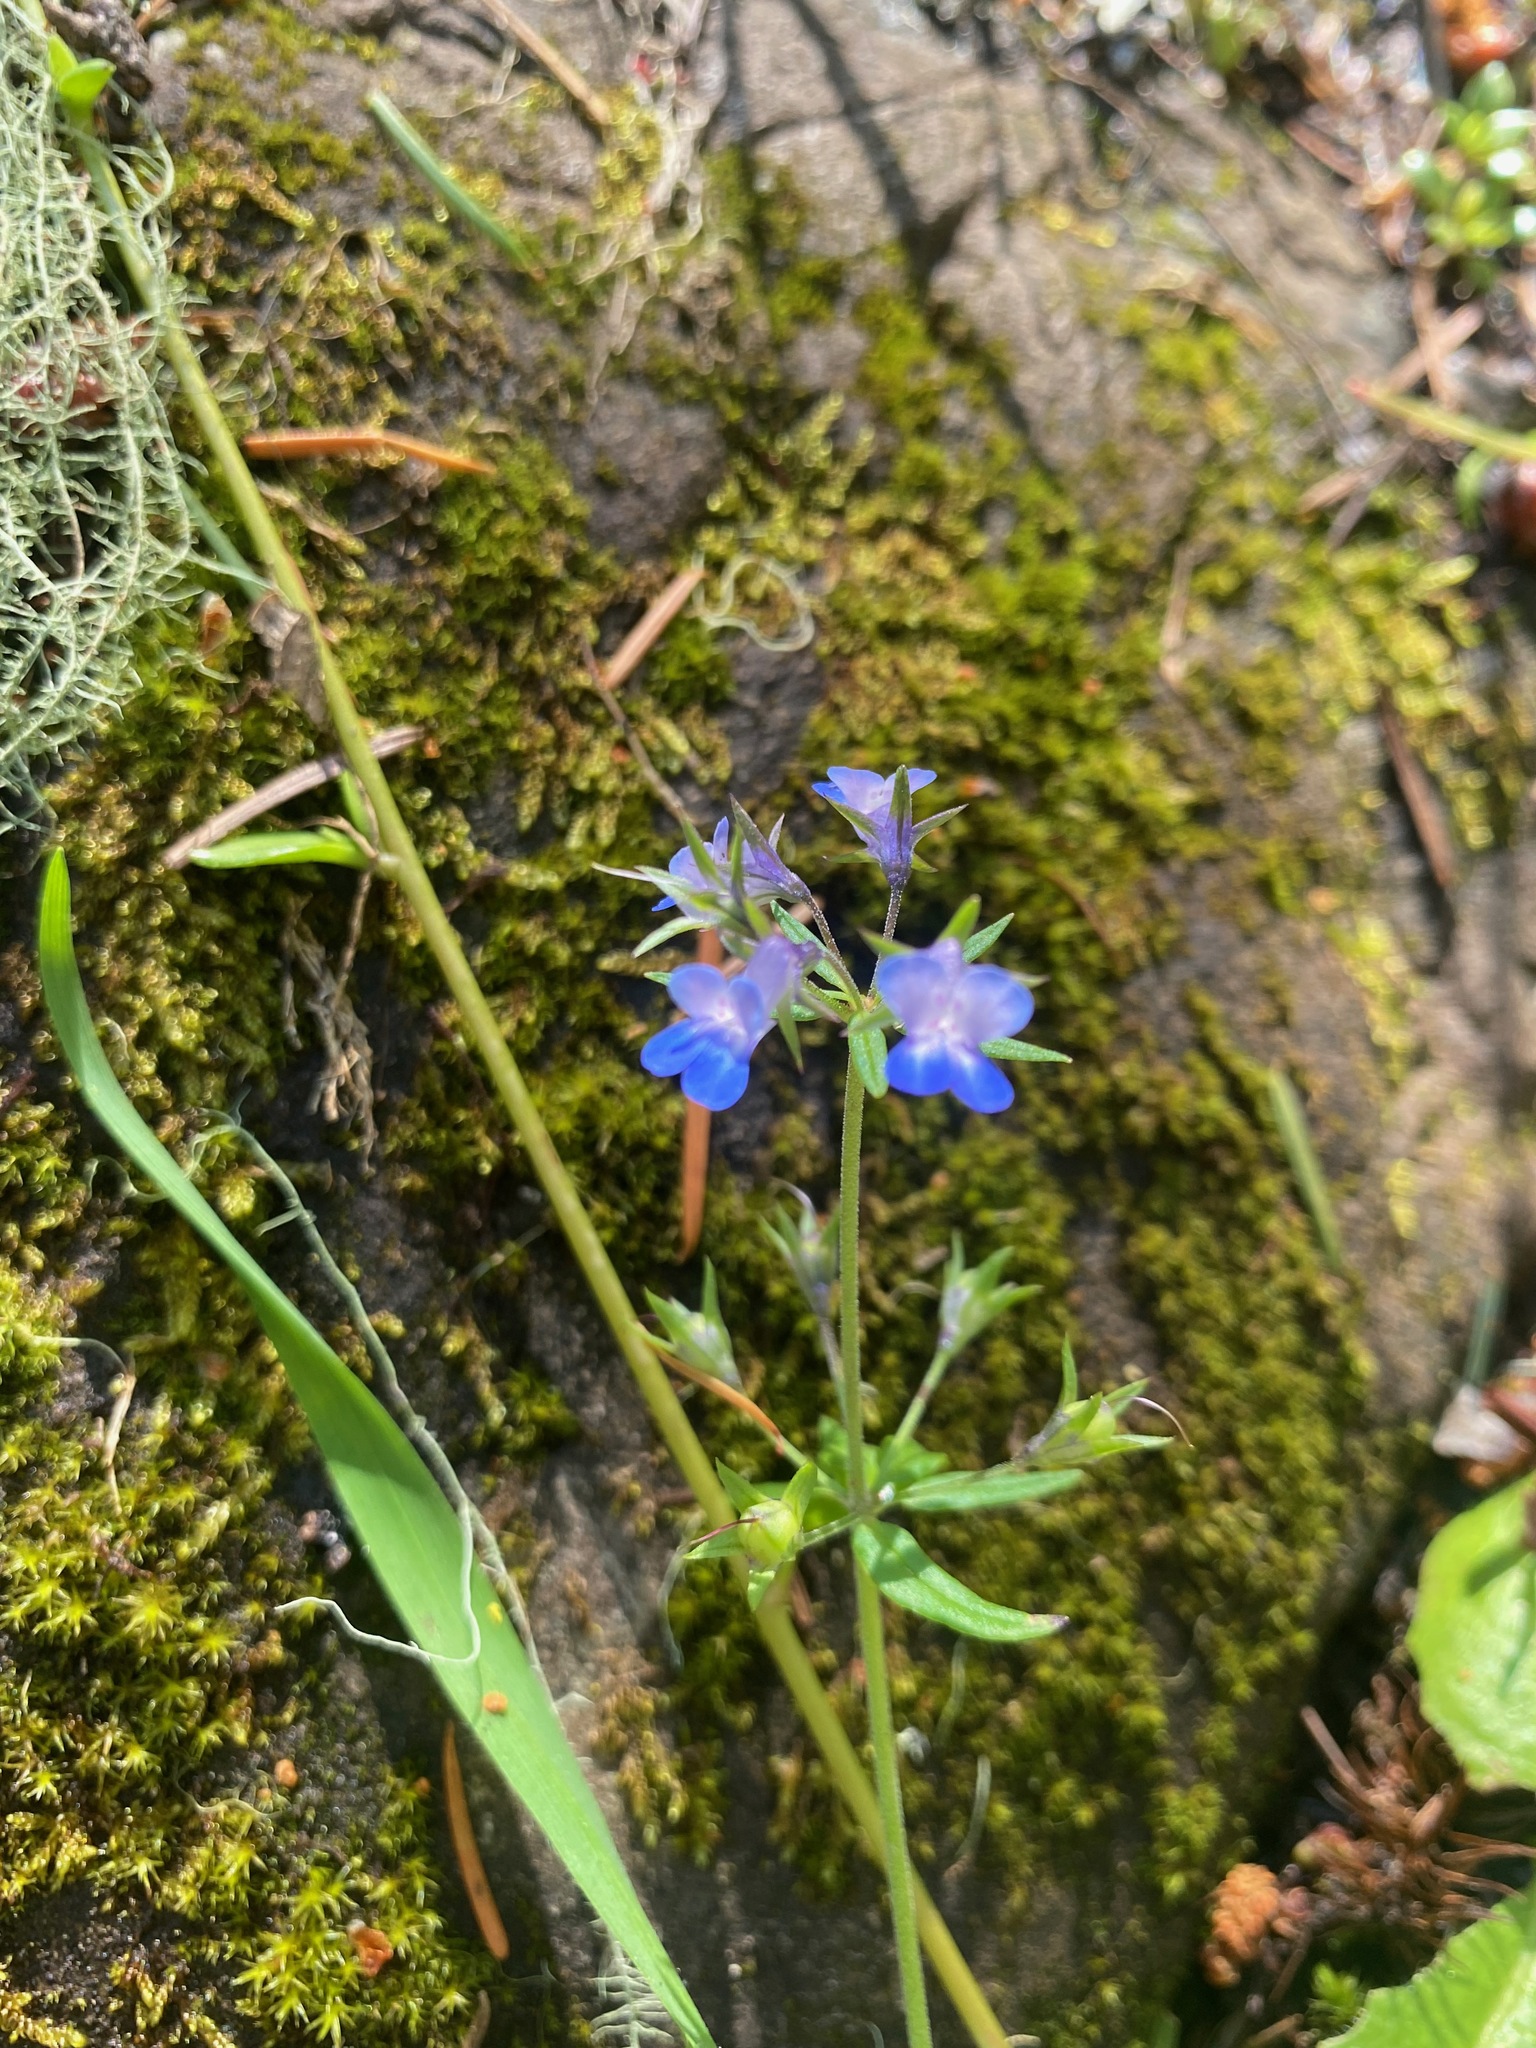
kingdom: Plantae
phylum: Tracheophyta
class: Magnoliopsida
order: Lamiales
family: Plantaginaceae
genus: Collinsia
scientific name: Collinsia parviflora
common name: Blue-lips
